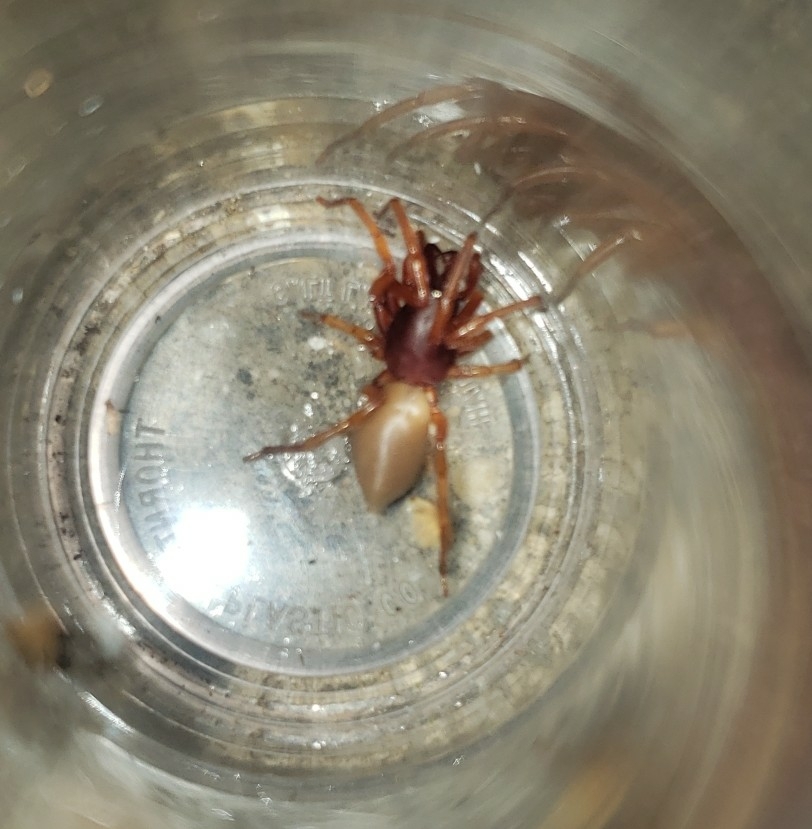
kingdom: Animalia
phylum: Arthropoda
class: Arachnida
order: Araneae
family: Dysderidae
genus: Dysdera
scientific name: Dysdera crocata
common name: Woodlouse spider
